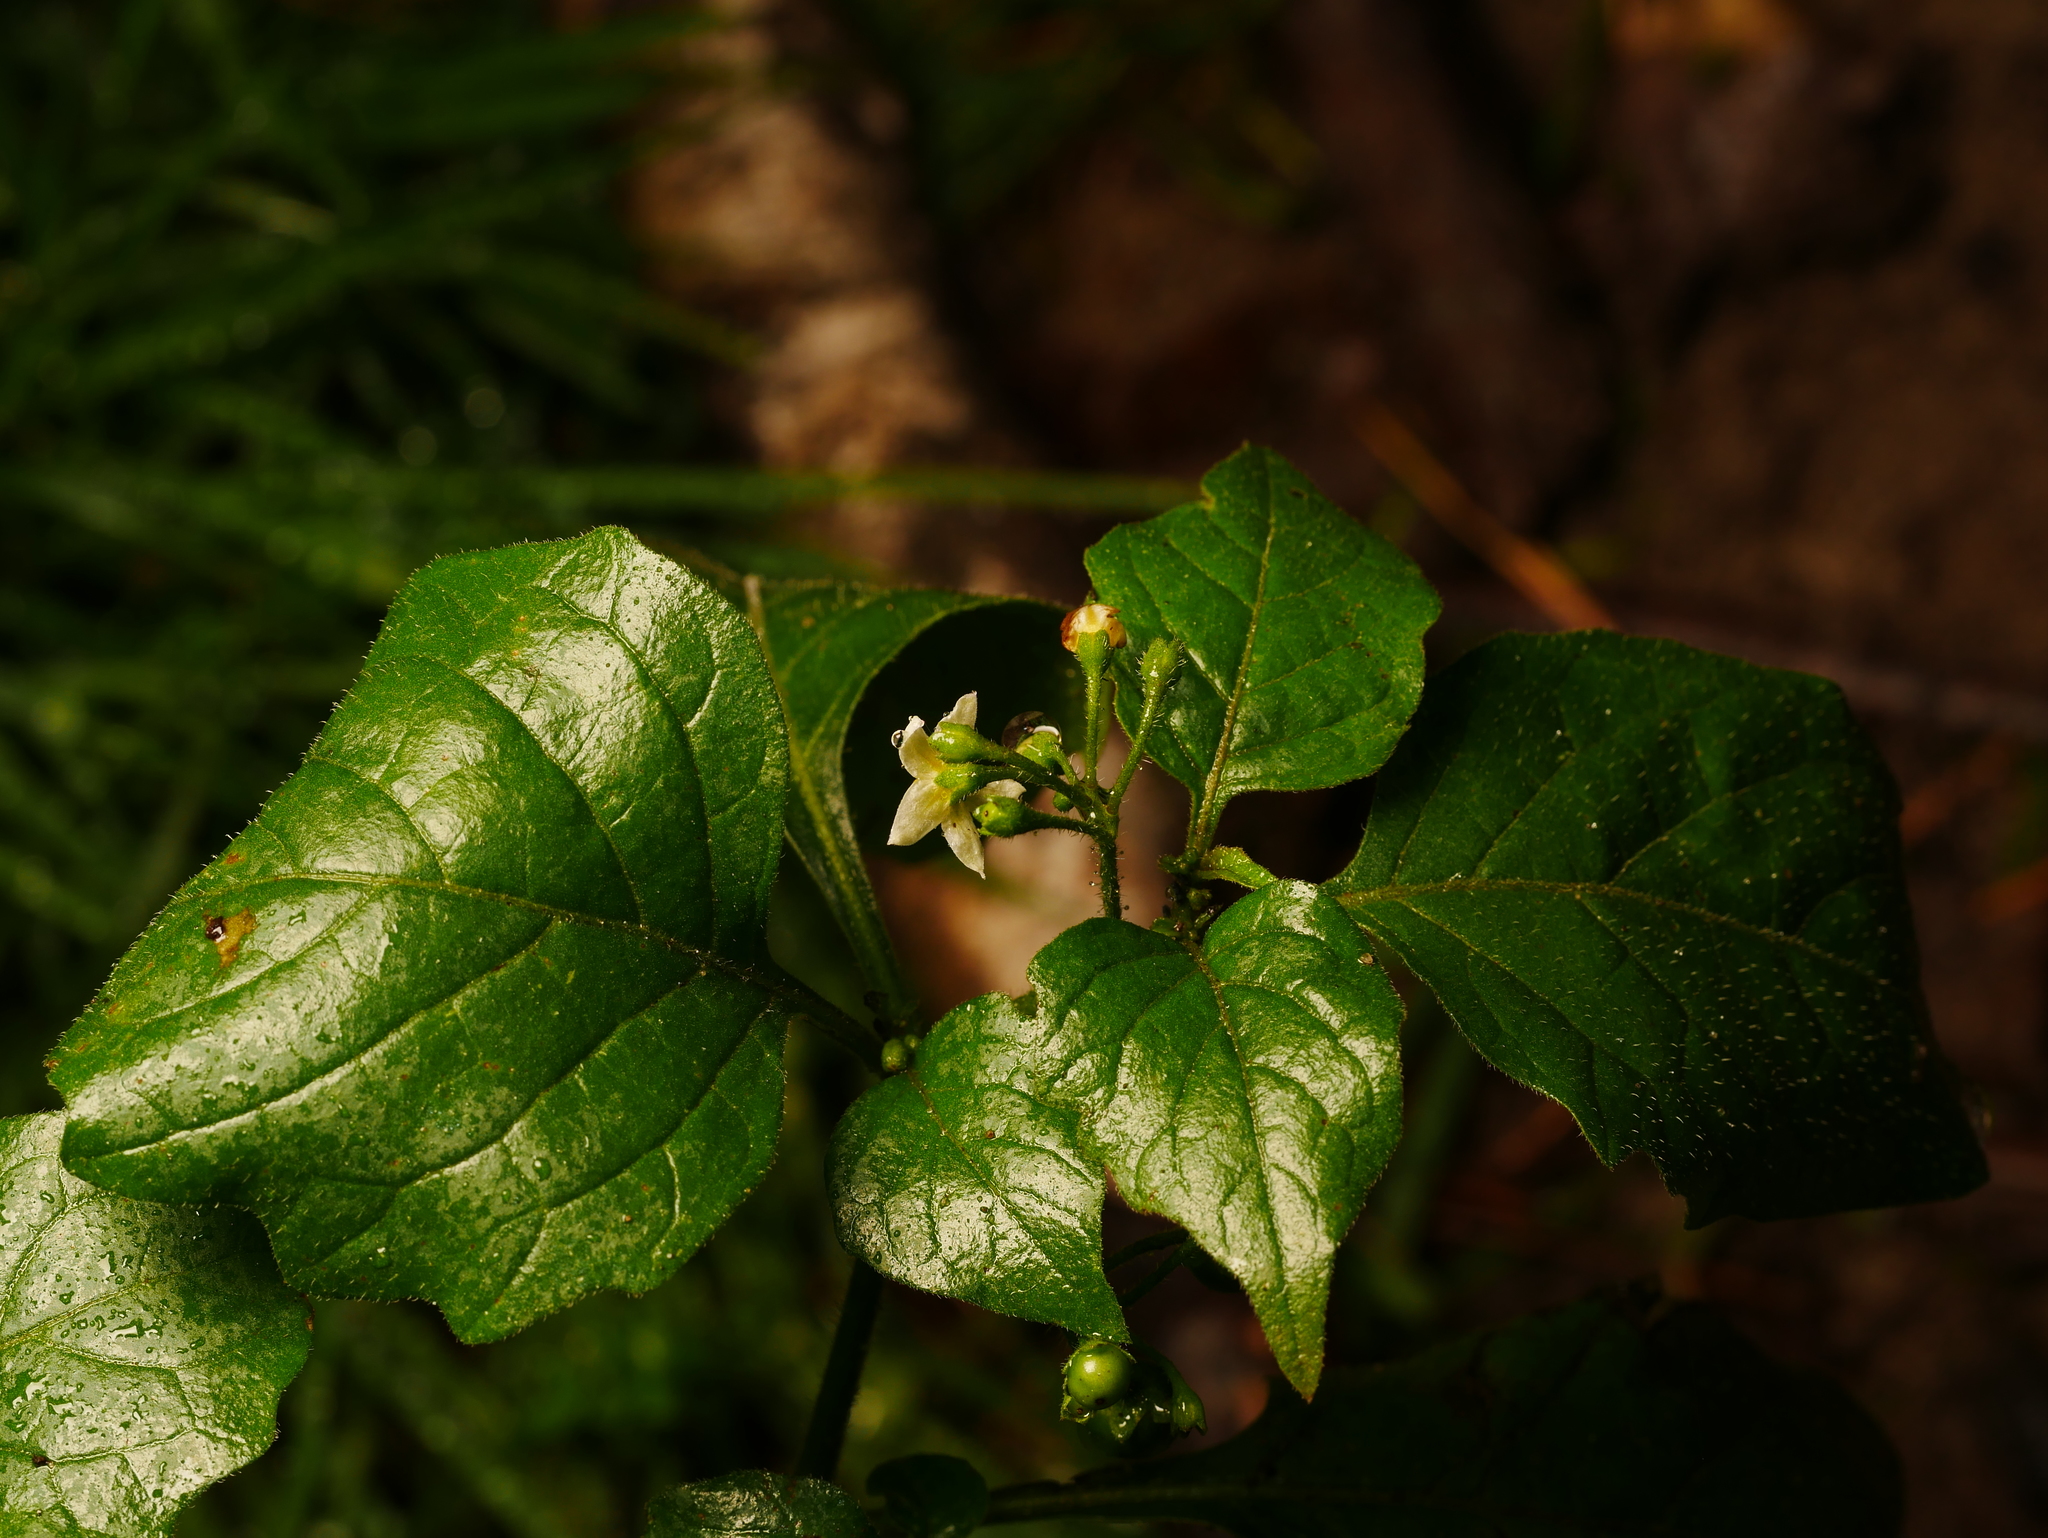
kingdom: Plantae
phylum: Tracheophyta
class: Magnoliopsida
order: Solanales
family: Solanaceae
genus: Solanum
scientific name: Solanum nigrum
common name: Black nightshade
